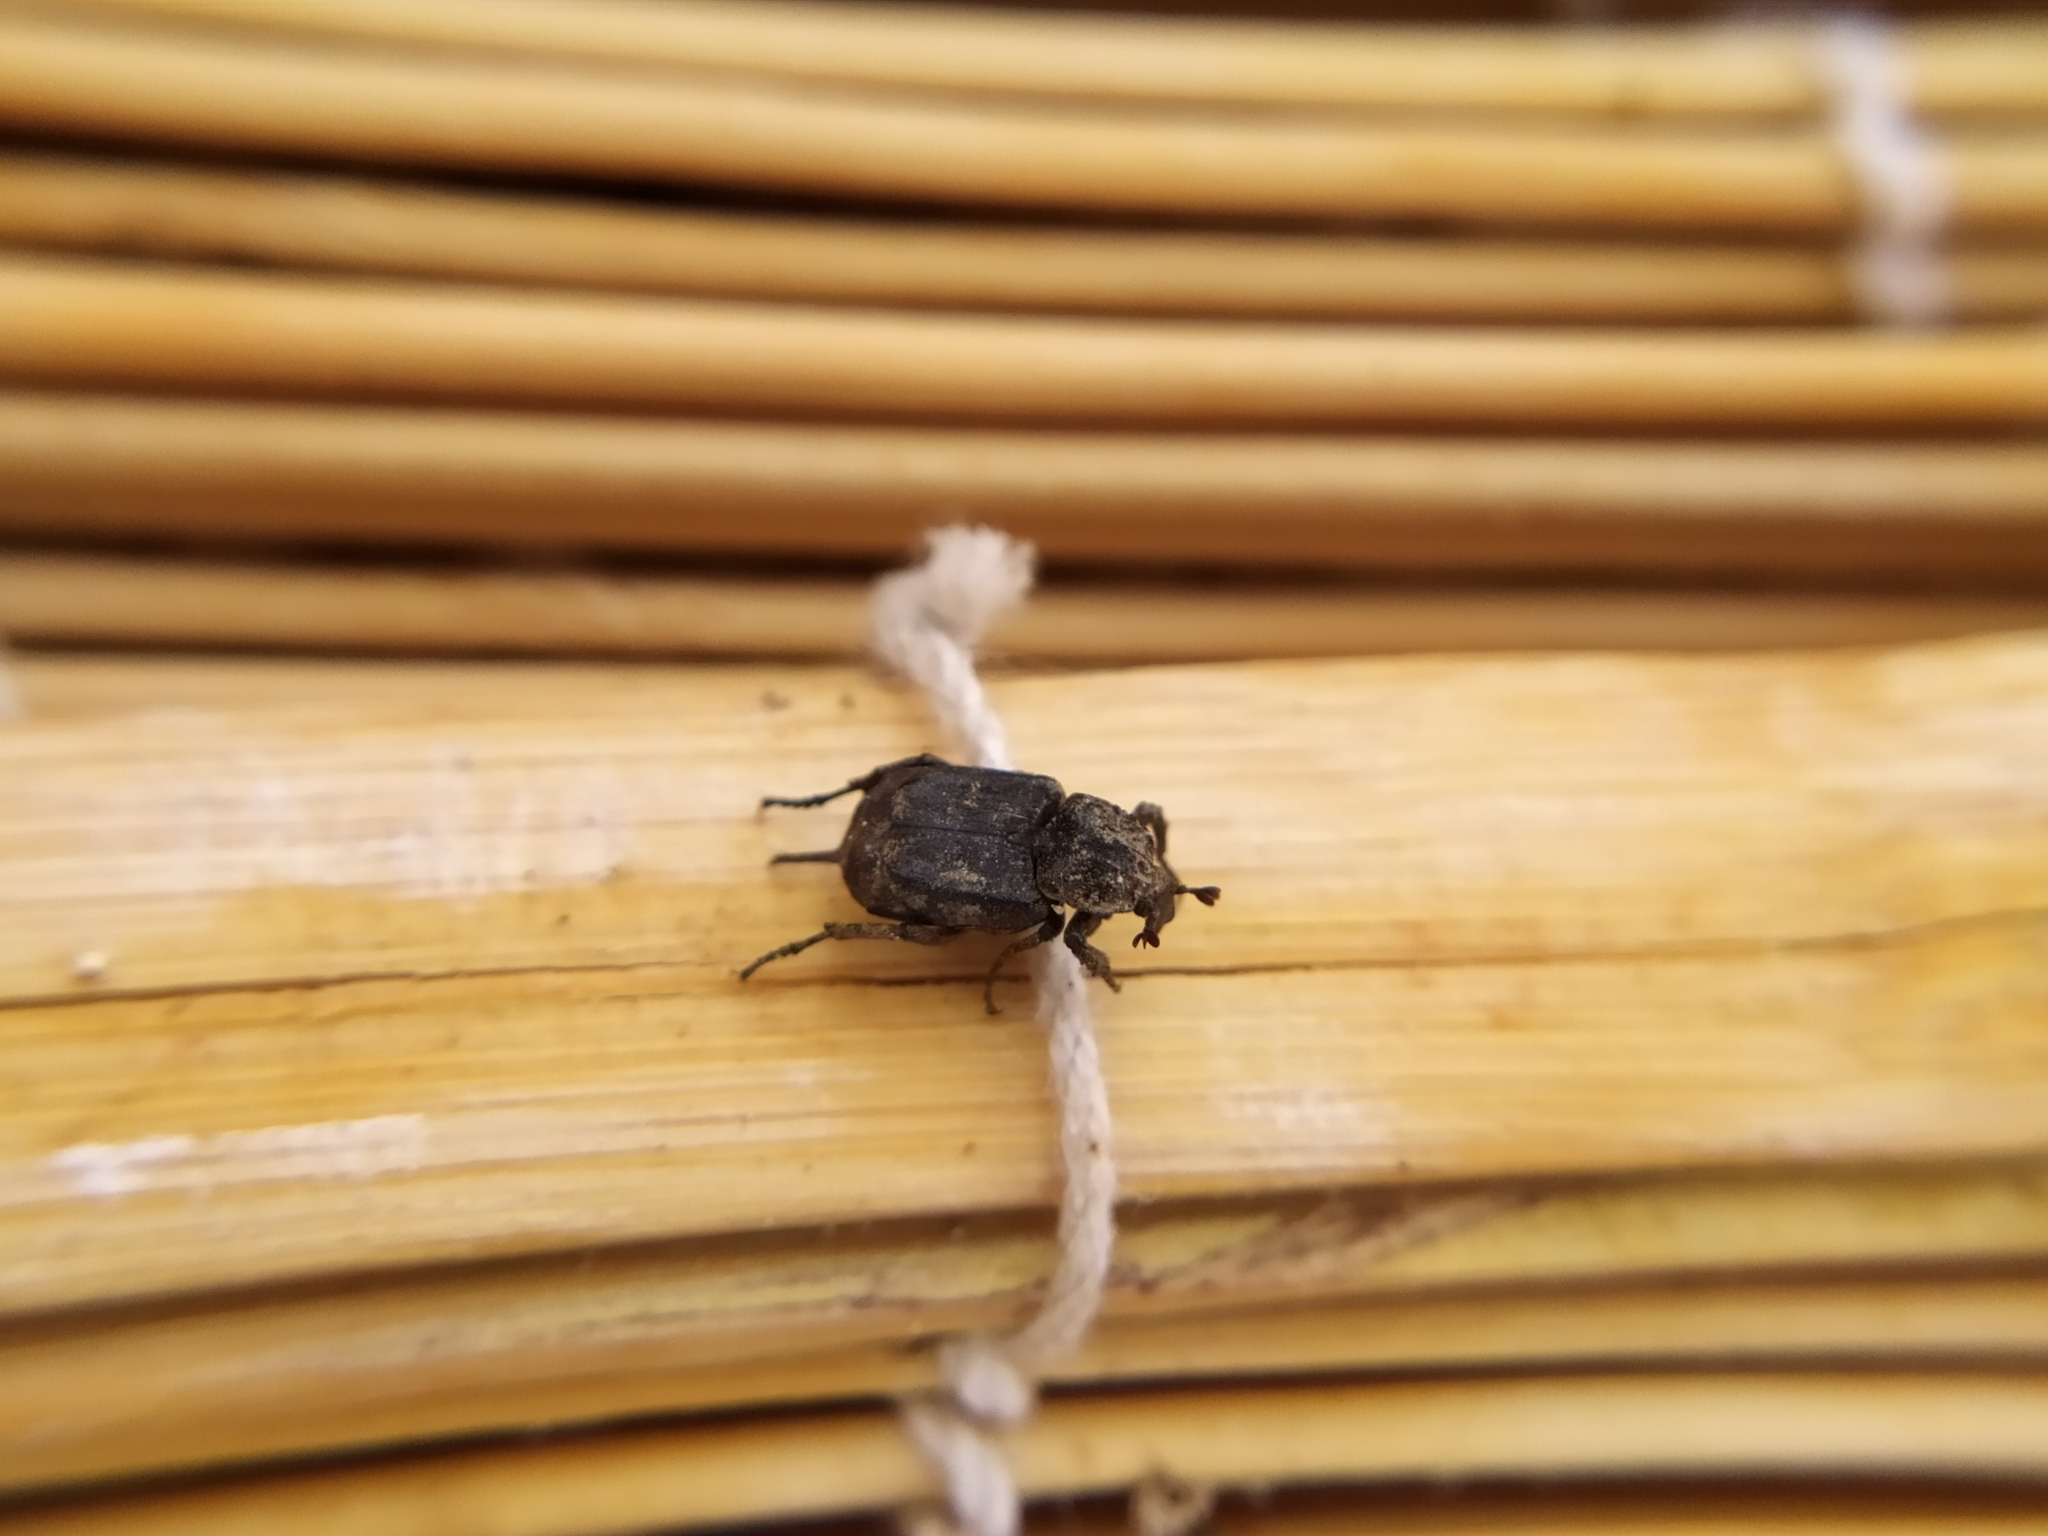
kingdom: Animalia
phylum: Arthropoda
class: Insecta
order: Coleoptera
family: Scarabaeidae
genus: Valgus
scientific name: Valgus hemipterus
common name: Bug flower chafer
